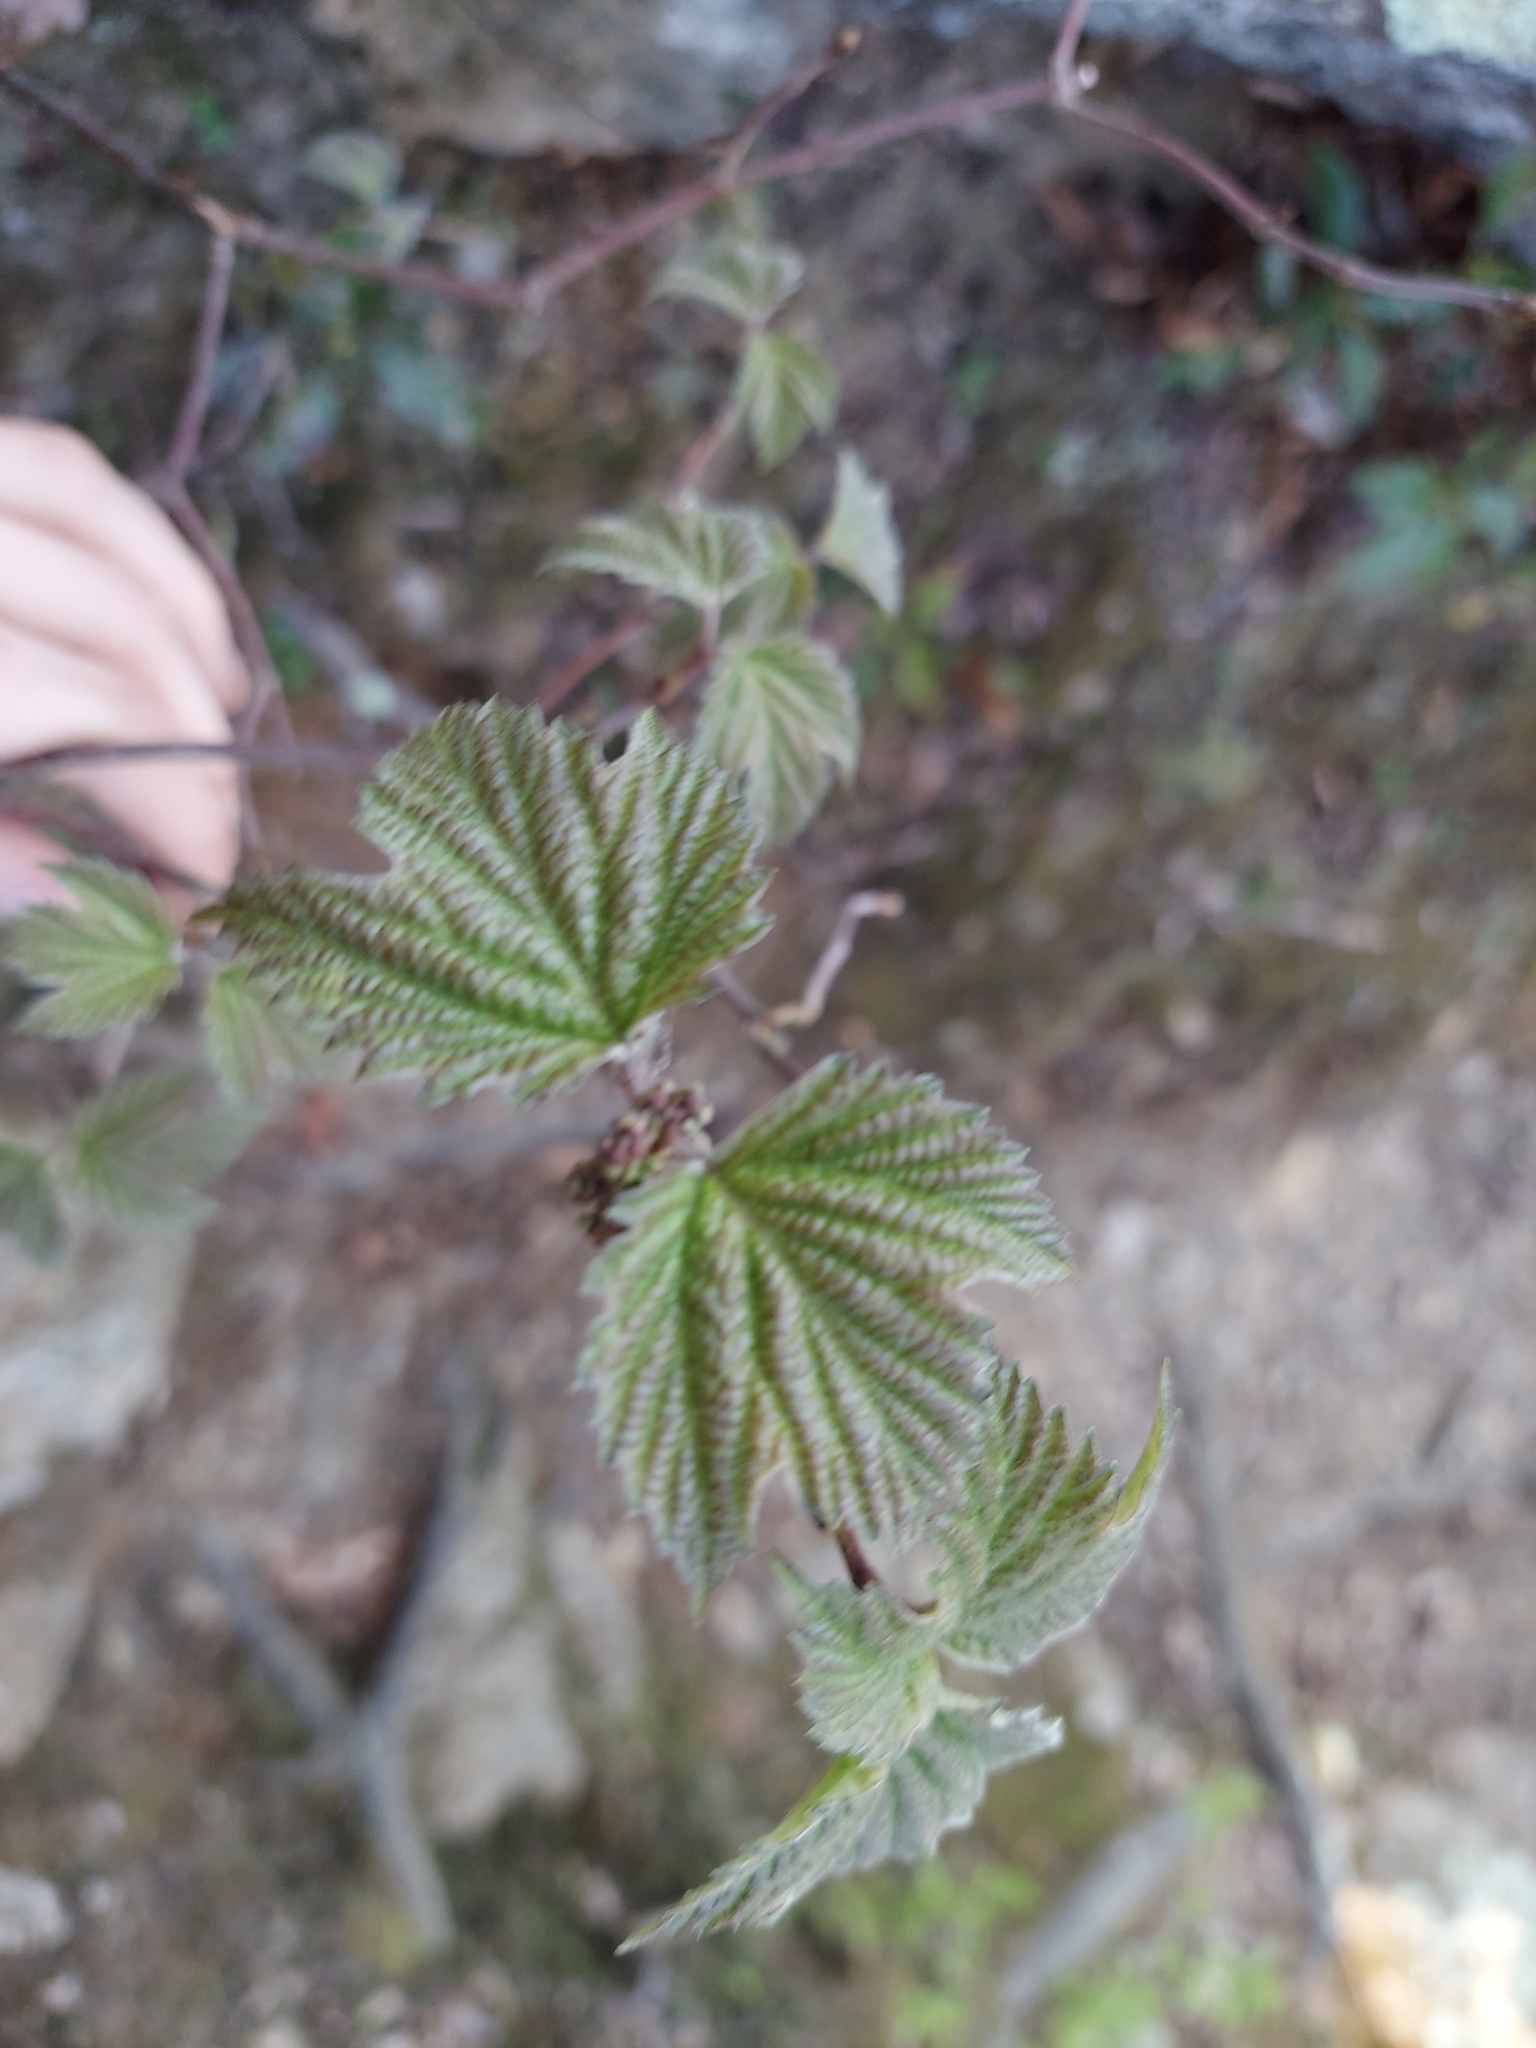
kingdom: Plantae
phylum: Tracheophyta
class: Magnoliopsida
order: Dipsacales
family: Viburnaceae
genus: Viburnum
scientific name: Viburnum acerifolium
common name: Dockmackie
